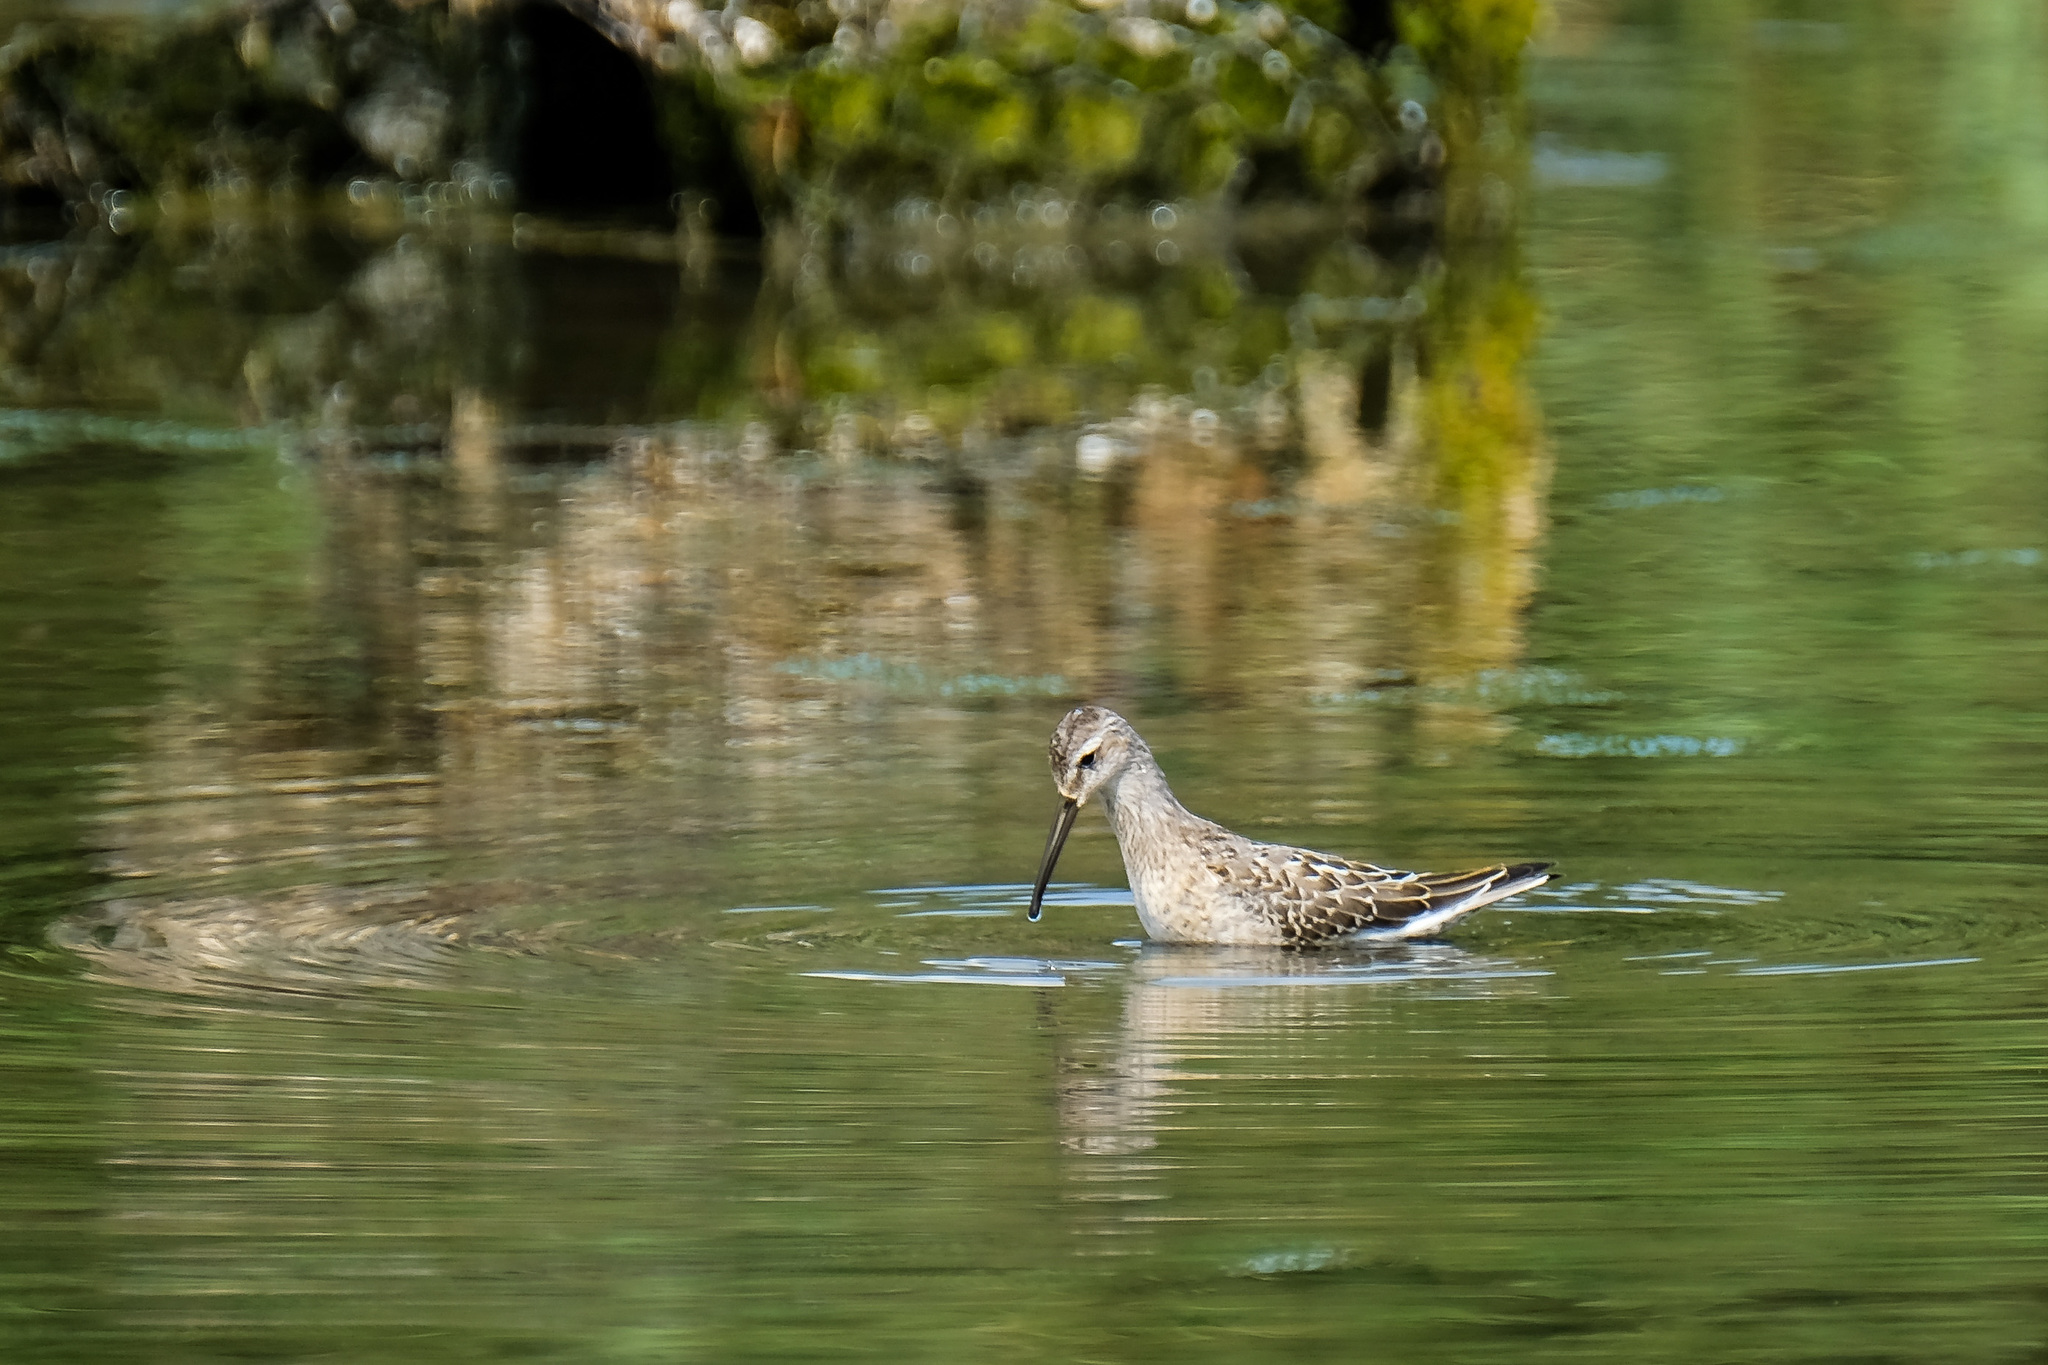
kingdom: Animalia
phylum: Chordata
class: Aves
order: Charadriiformes
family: Scolopacidae
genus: Calidris
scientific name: Calidris himantopus
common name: Stilt sandpiper
